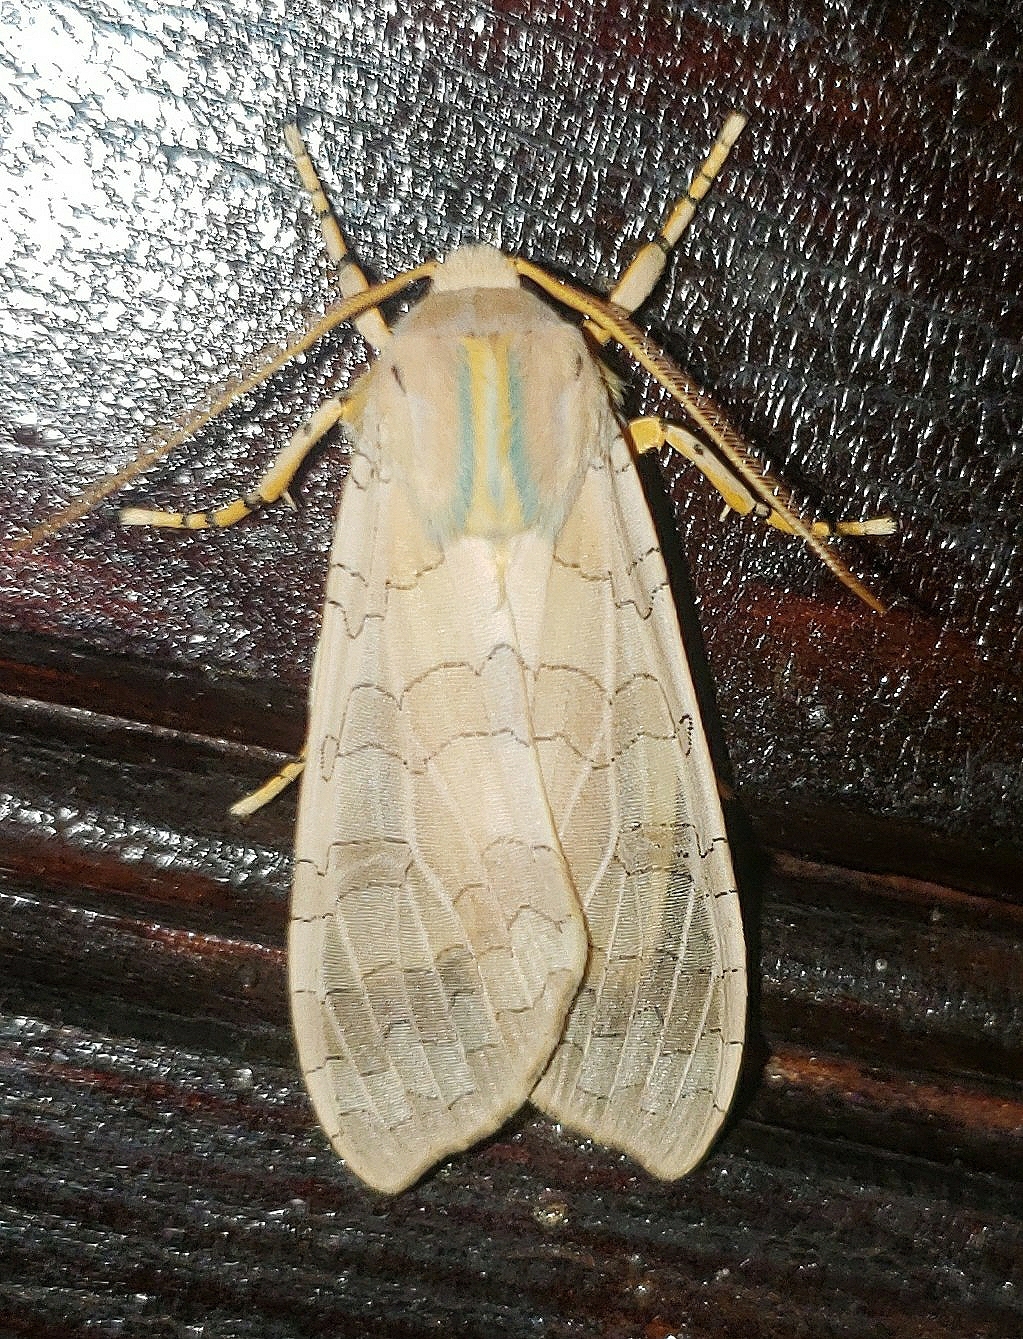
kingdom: Animalia
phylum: Arthropoda
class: Insecta
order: Lepidoptera
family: Erebidae
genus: Halysidota
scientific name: Halysidota
